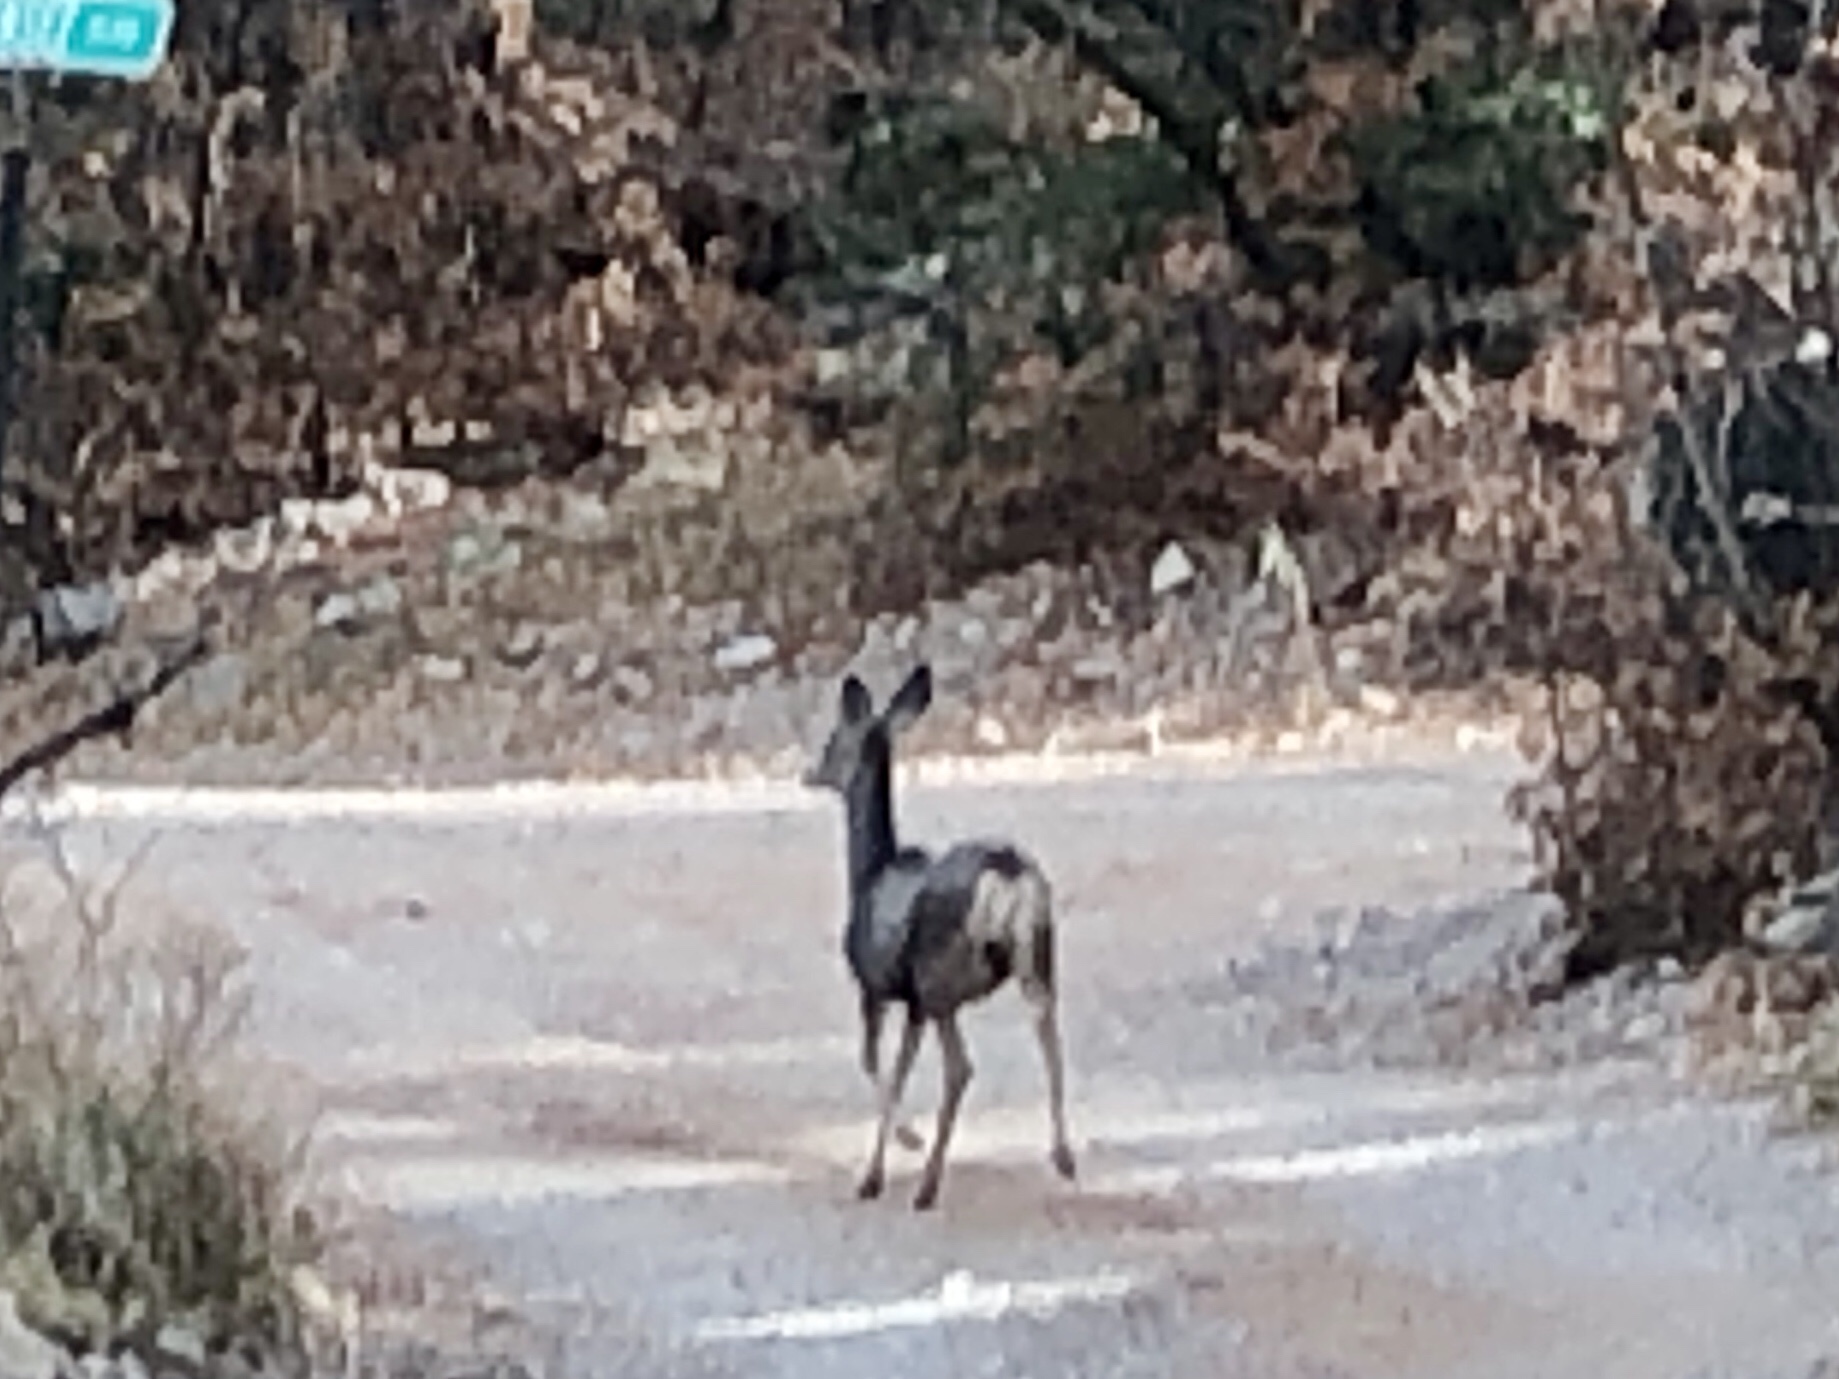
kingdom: Animalia
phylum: Chordata
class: Mammalia
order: Artiodactyla
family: Cervidae
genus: Odocoileus
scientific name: Odocoileus hemionus
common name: Mule deer
